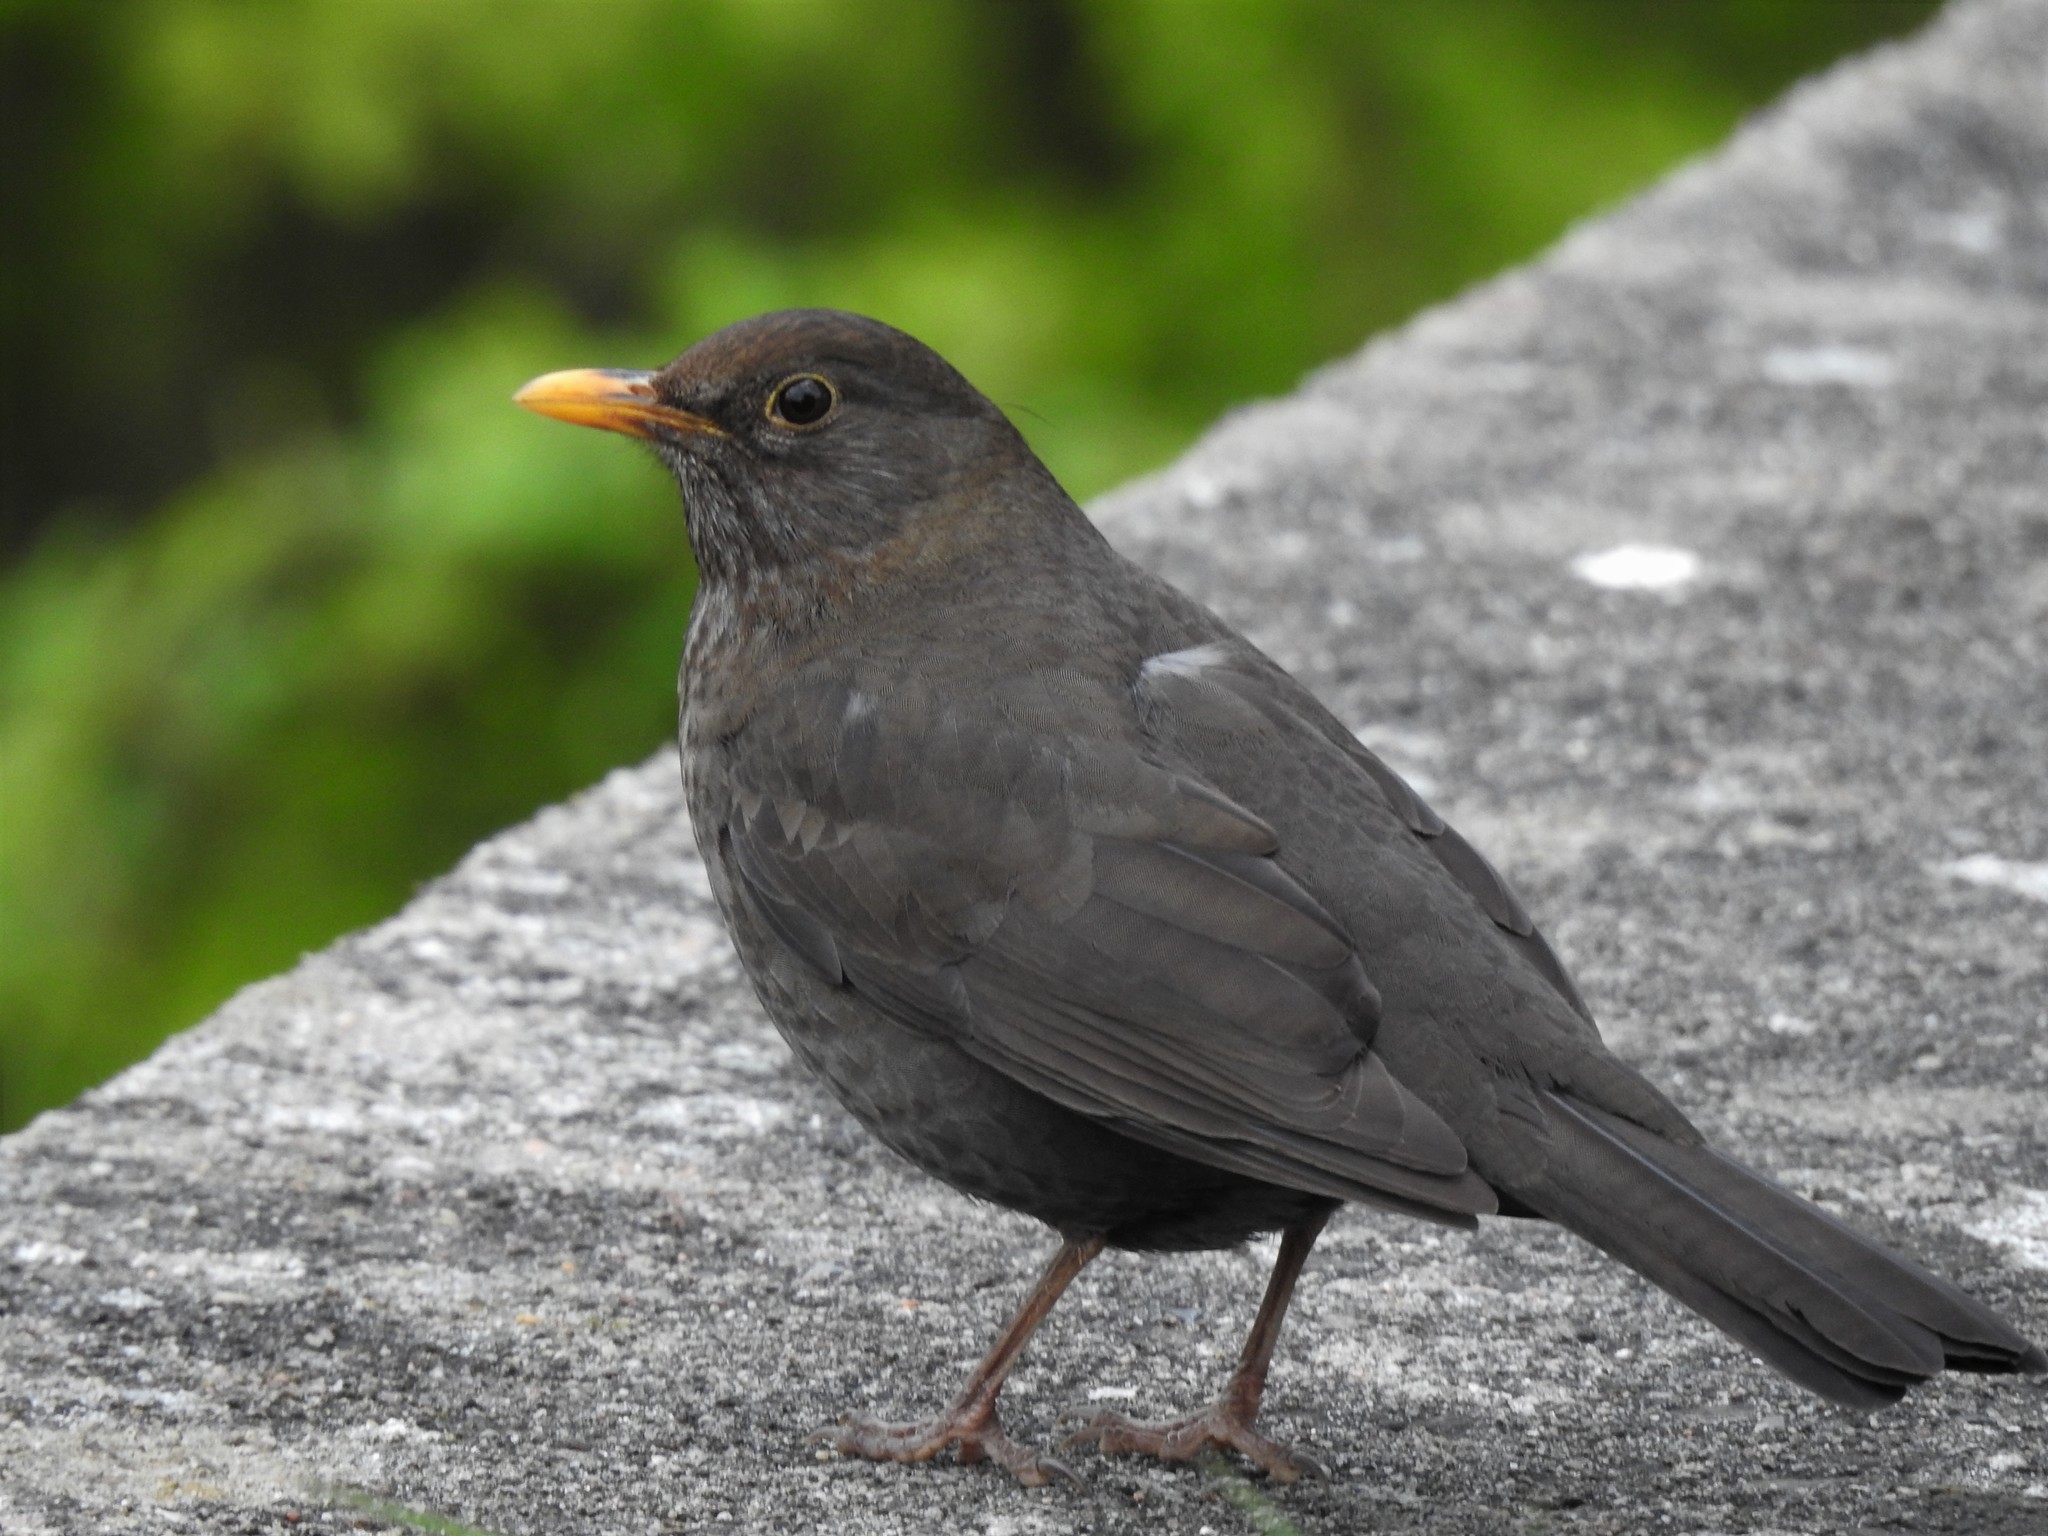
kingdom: Animalia
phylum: Chordata
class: Aves
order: Passeriformes
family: Turdidae
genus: Turdus
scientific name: Turdus merula
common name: Common blackbird
